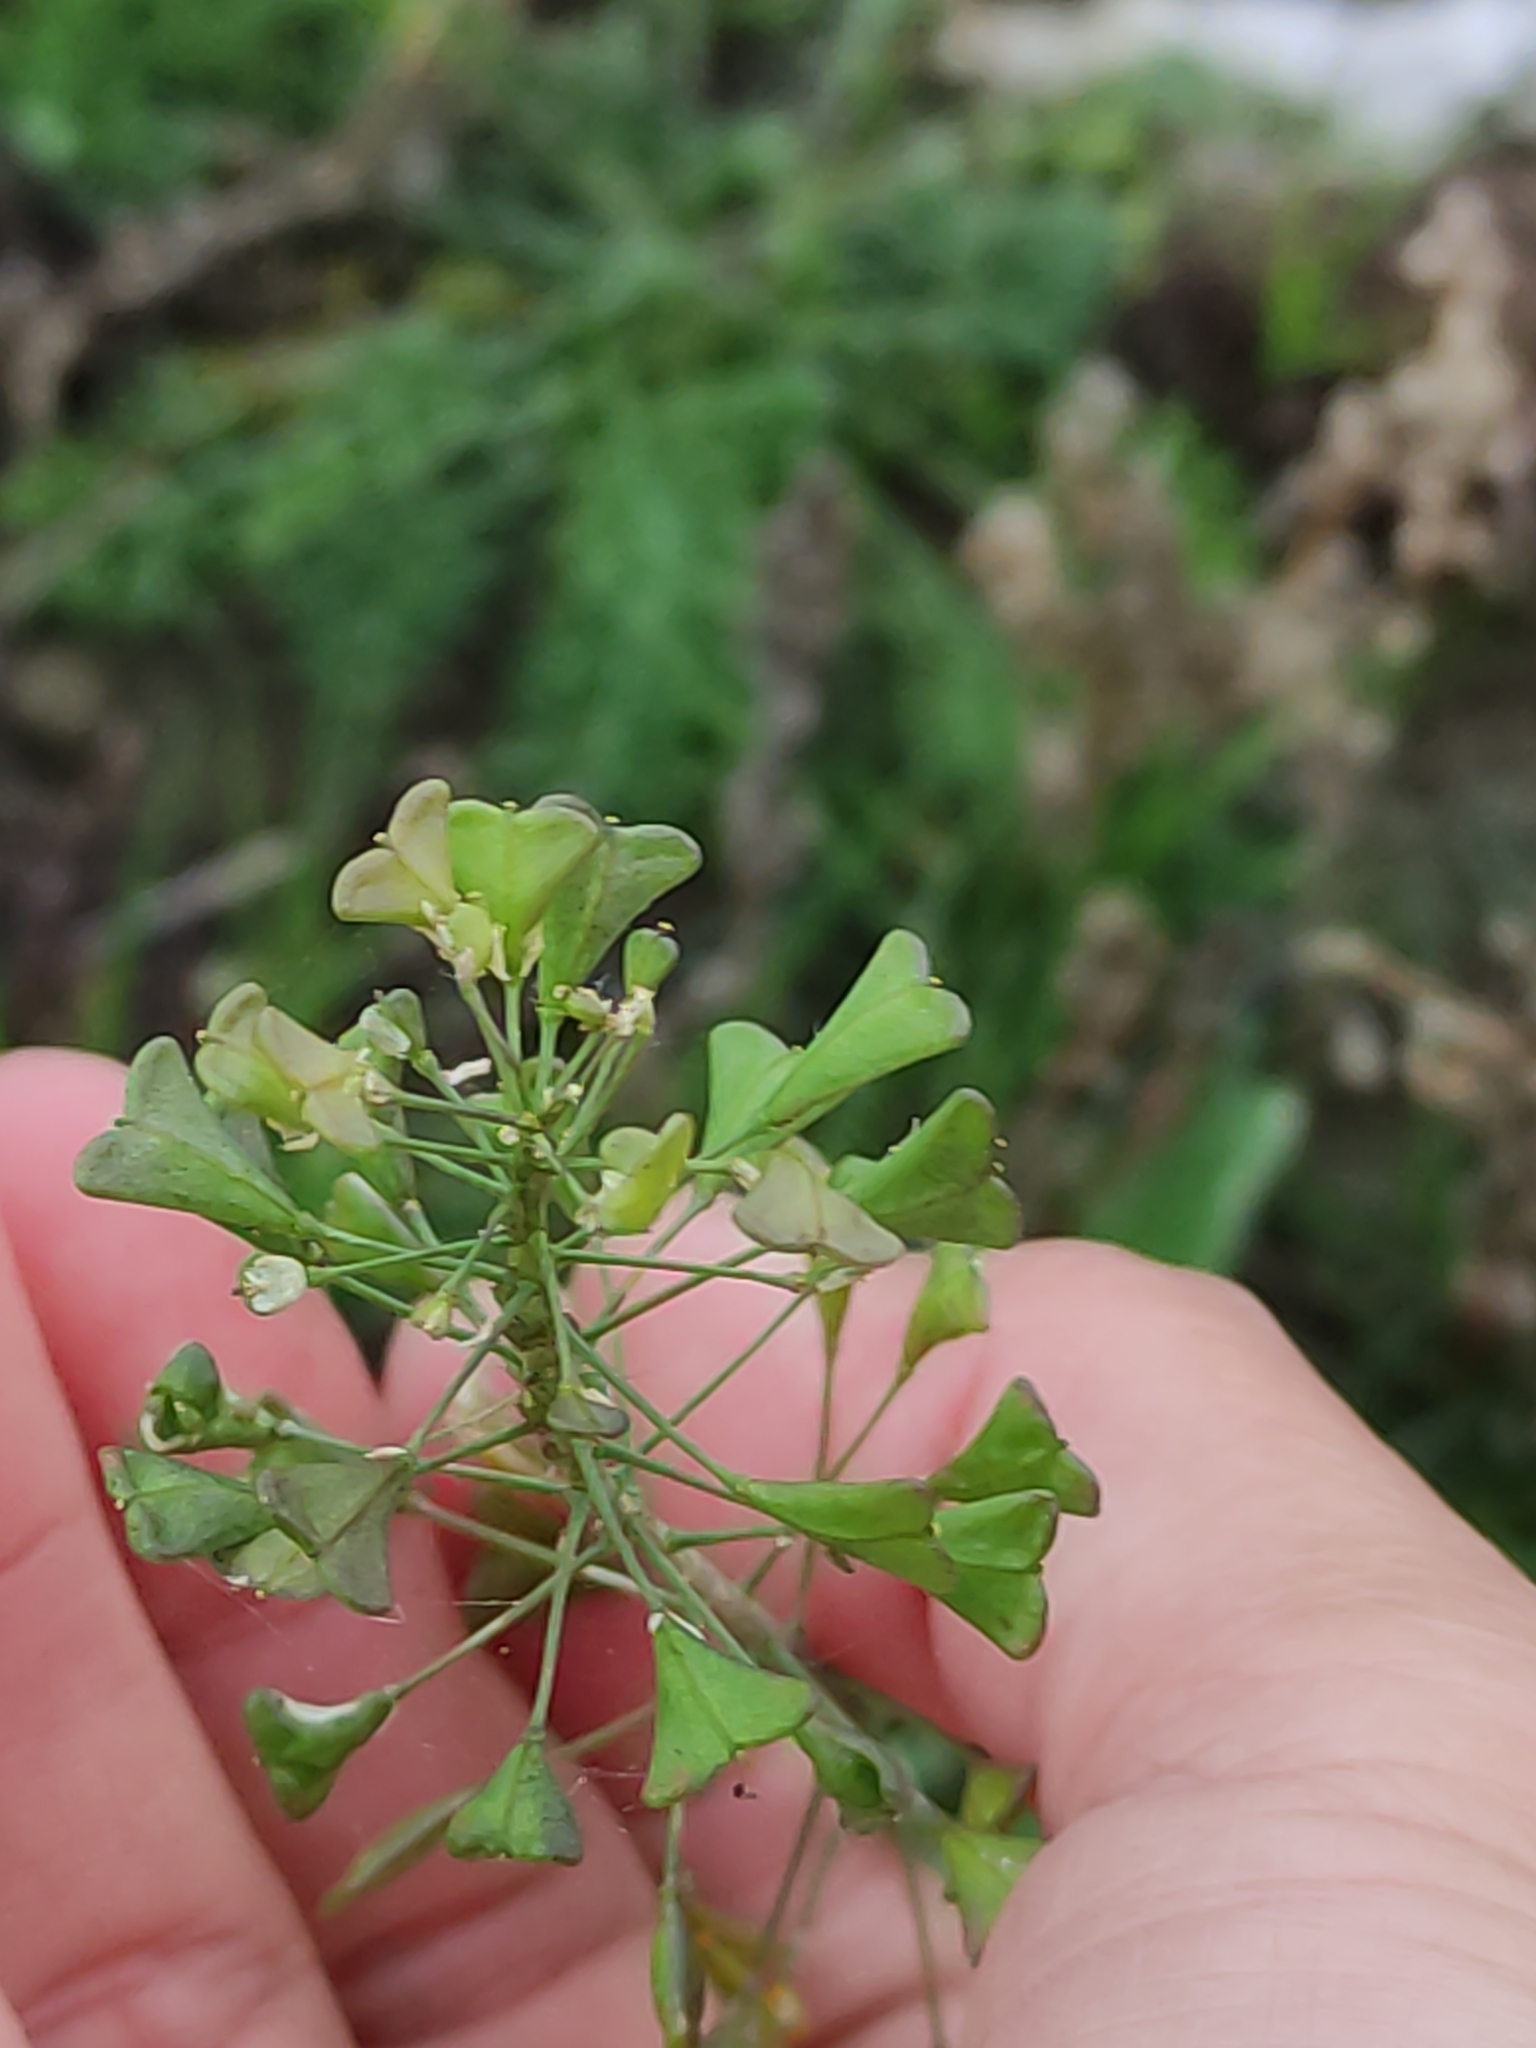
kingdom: Plantae
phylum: Tracheophyta
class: Magnoliopsida
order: Brassicales
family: Brassicaceae
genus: Capsella
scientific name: Capsella bursa-pastoris
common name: Shepherd's purse
